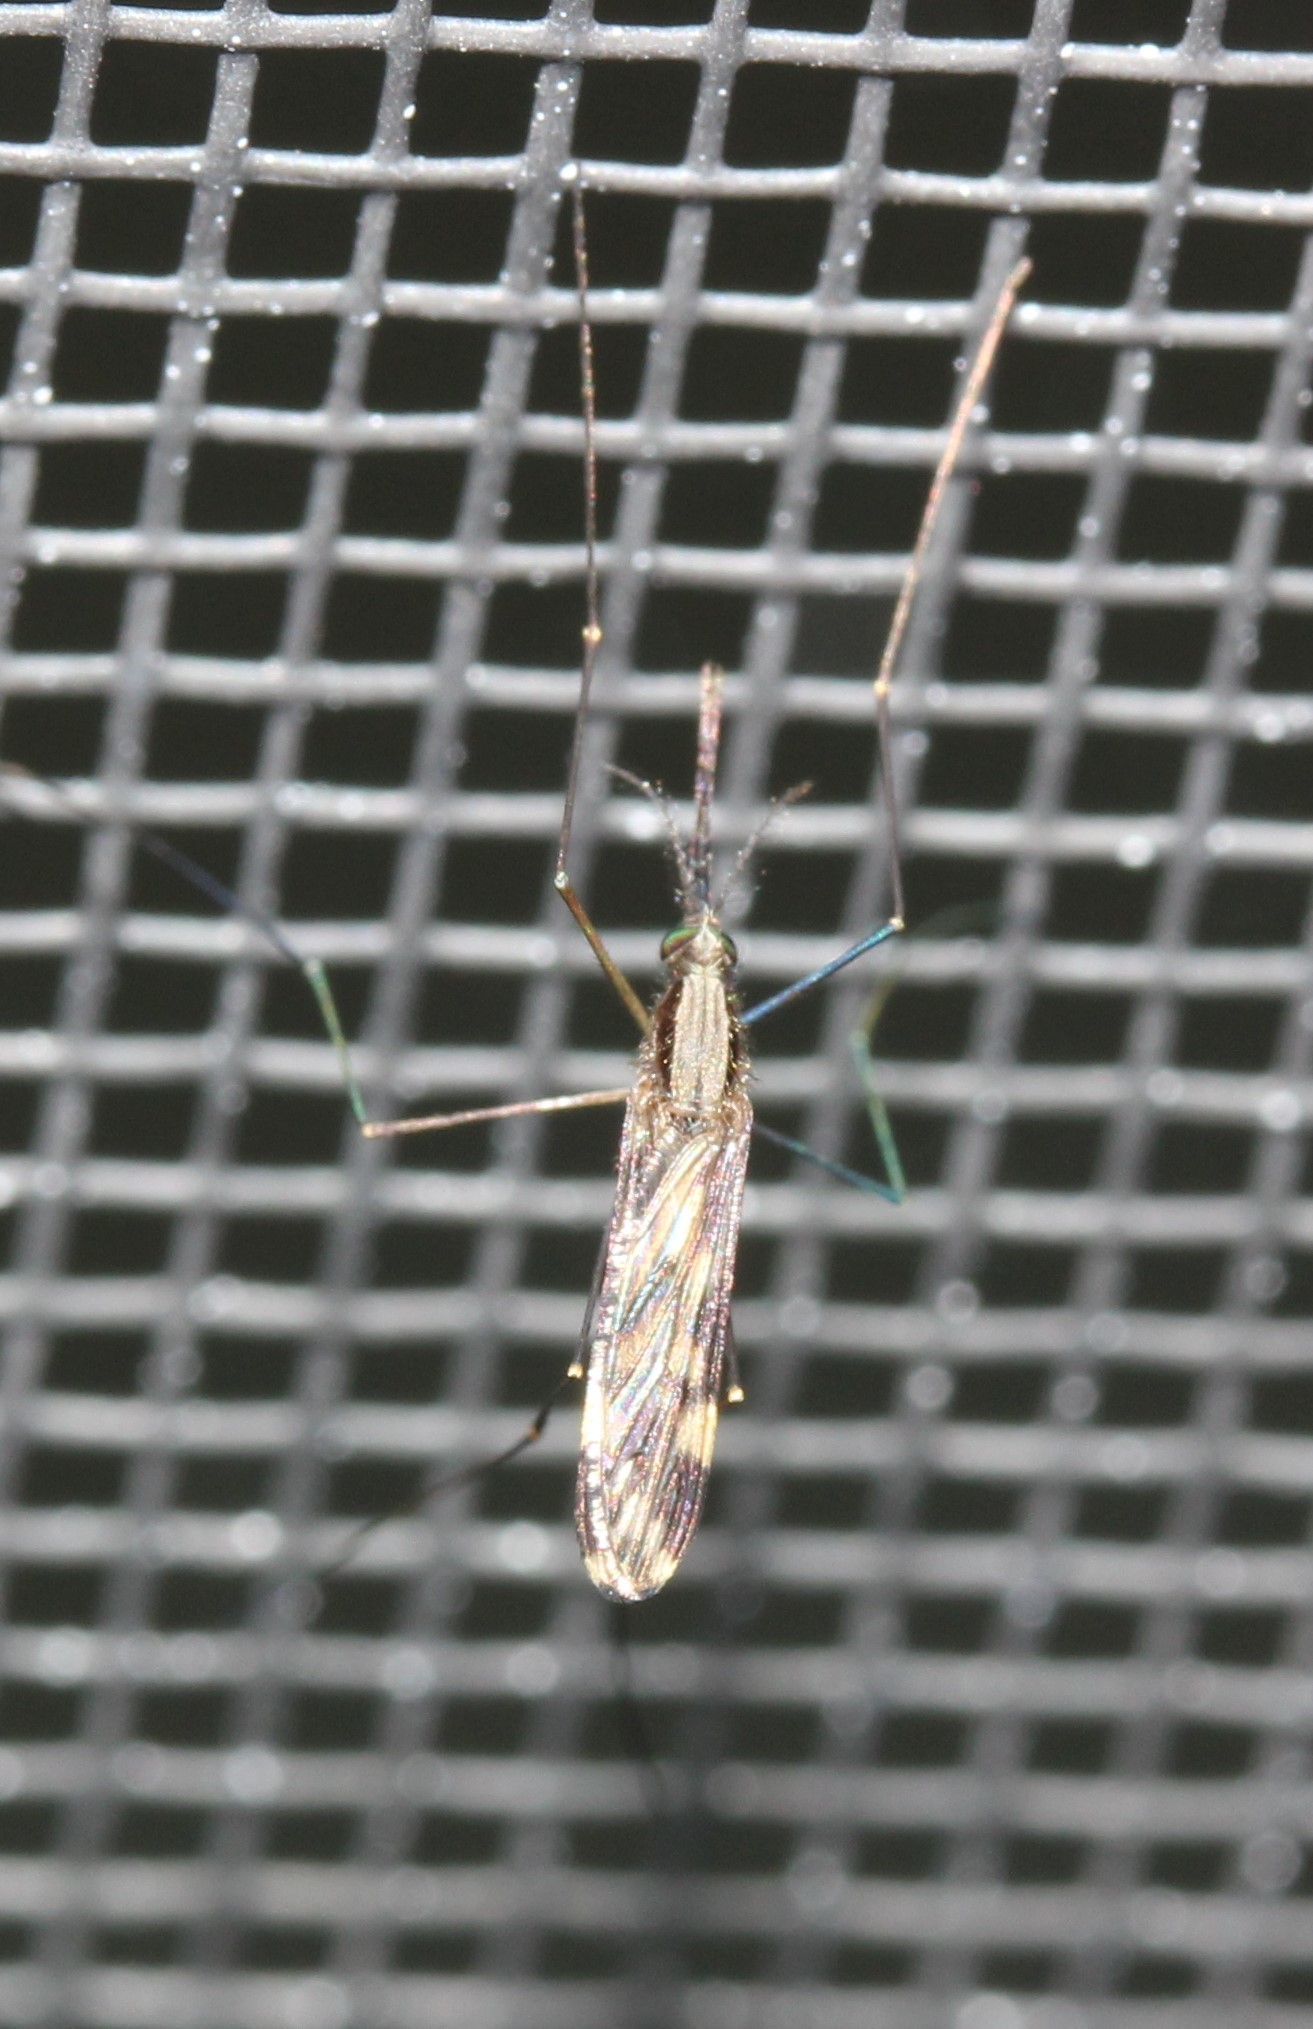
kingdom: Animalia
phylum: Arthropoda
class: Insecta
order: Diptera
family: Culicidae
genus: Anopheles
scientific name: Anopheles punctipennis
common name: Woodland malaria mosquito
